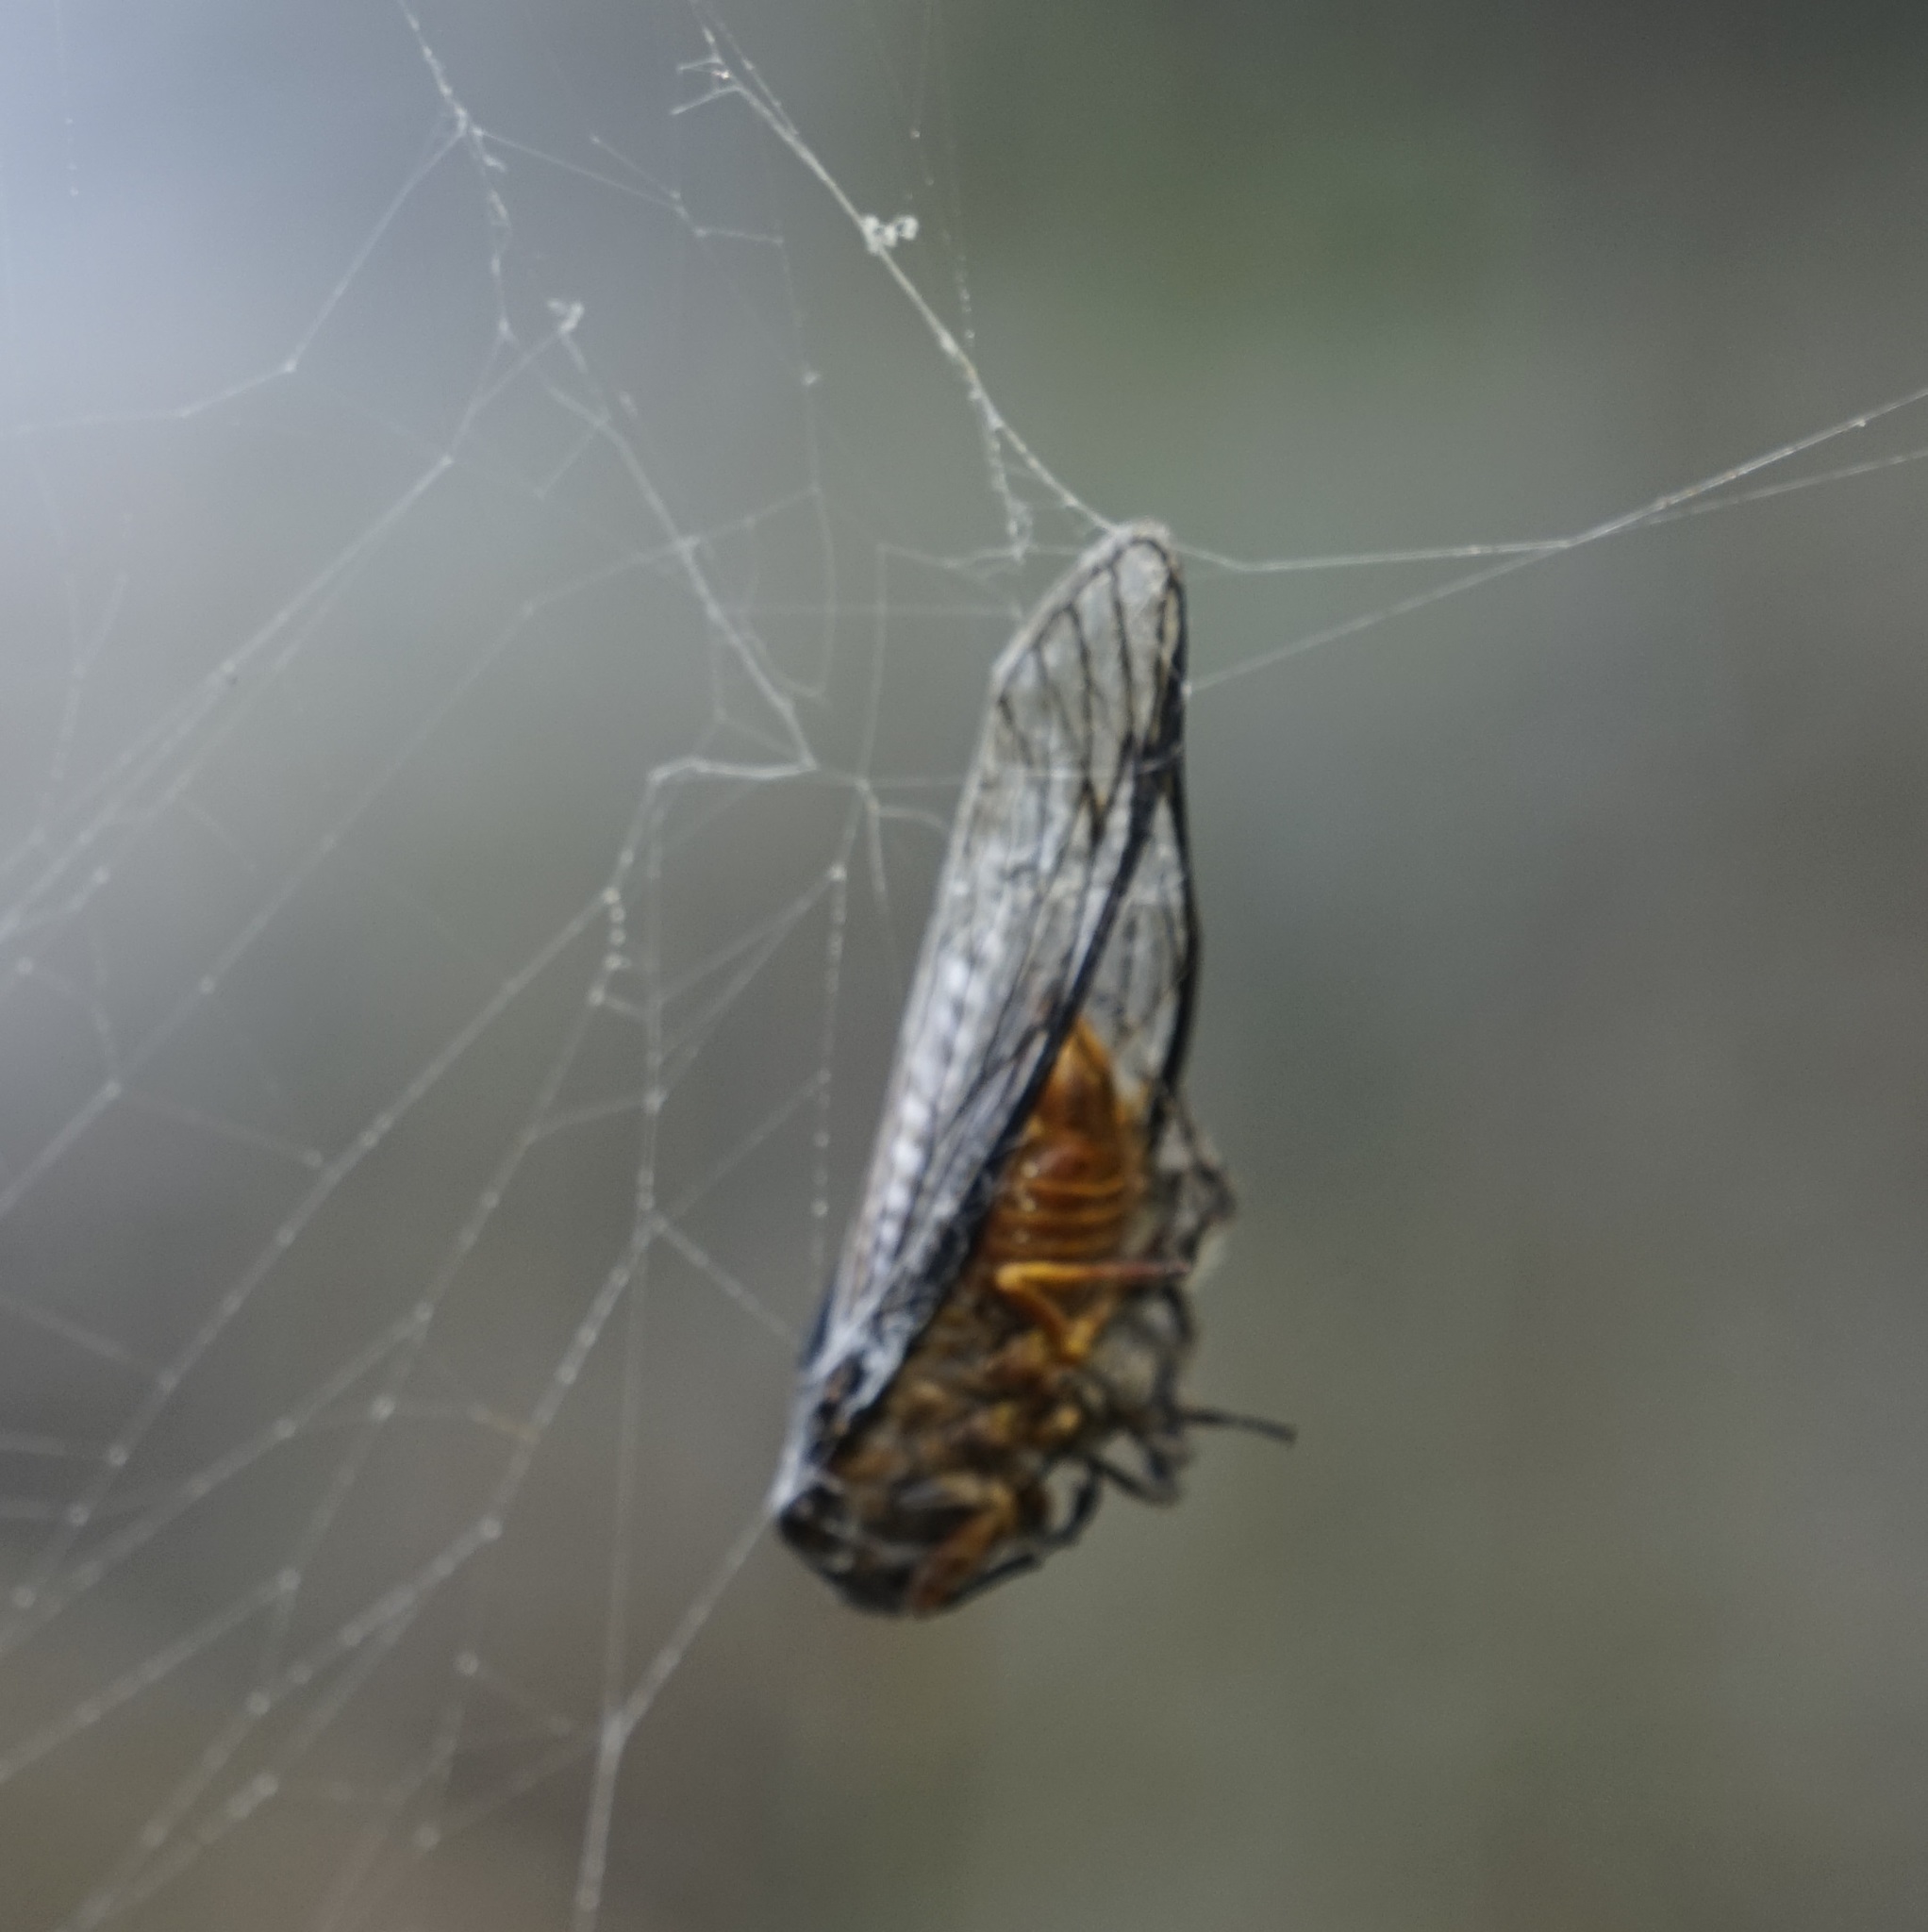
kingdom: Animalia
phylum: Arthropoda
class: Insecta
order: Hemiptera
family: Cicadidae
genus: Psaltoda
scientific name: Psaltoda plaga
